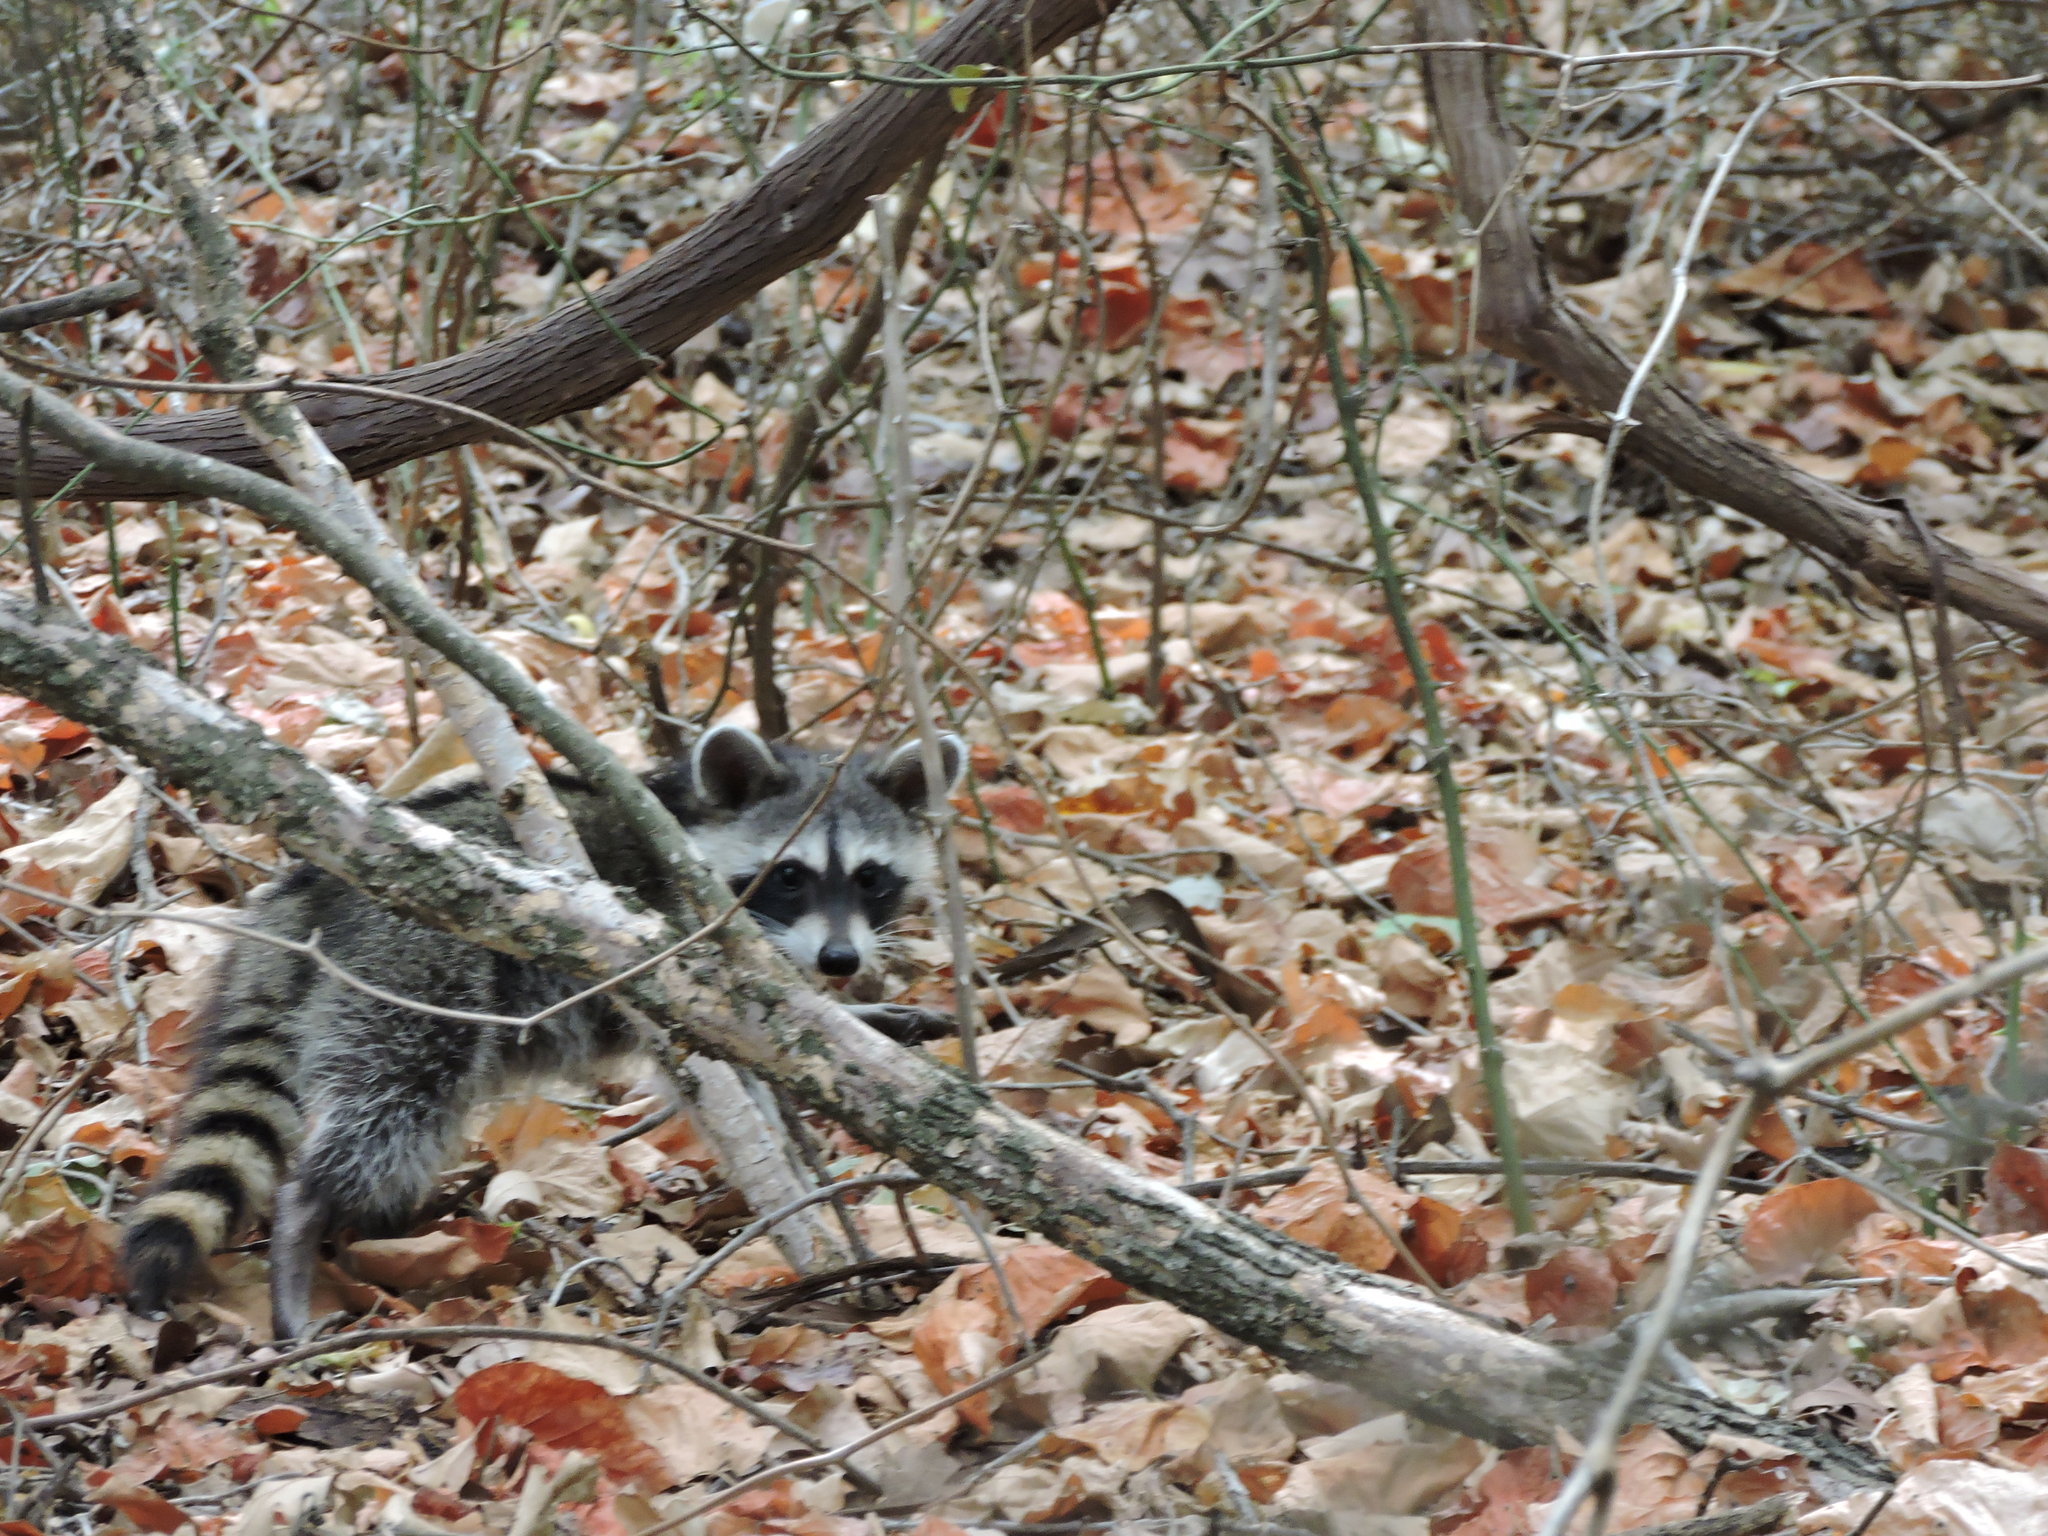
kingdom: Animalia
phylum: Chordata
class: Mammalia
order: Carnivora
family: Procyonidae
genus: Procyon
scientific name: Procyon lotor
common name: Raccoon
